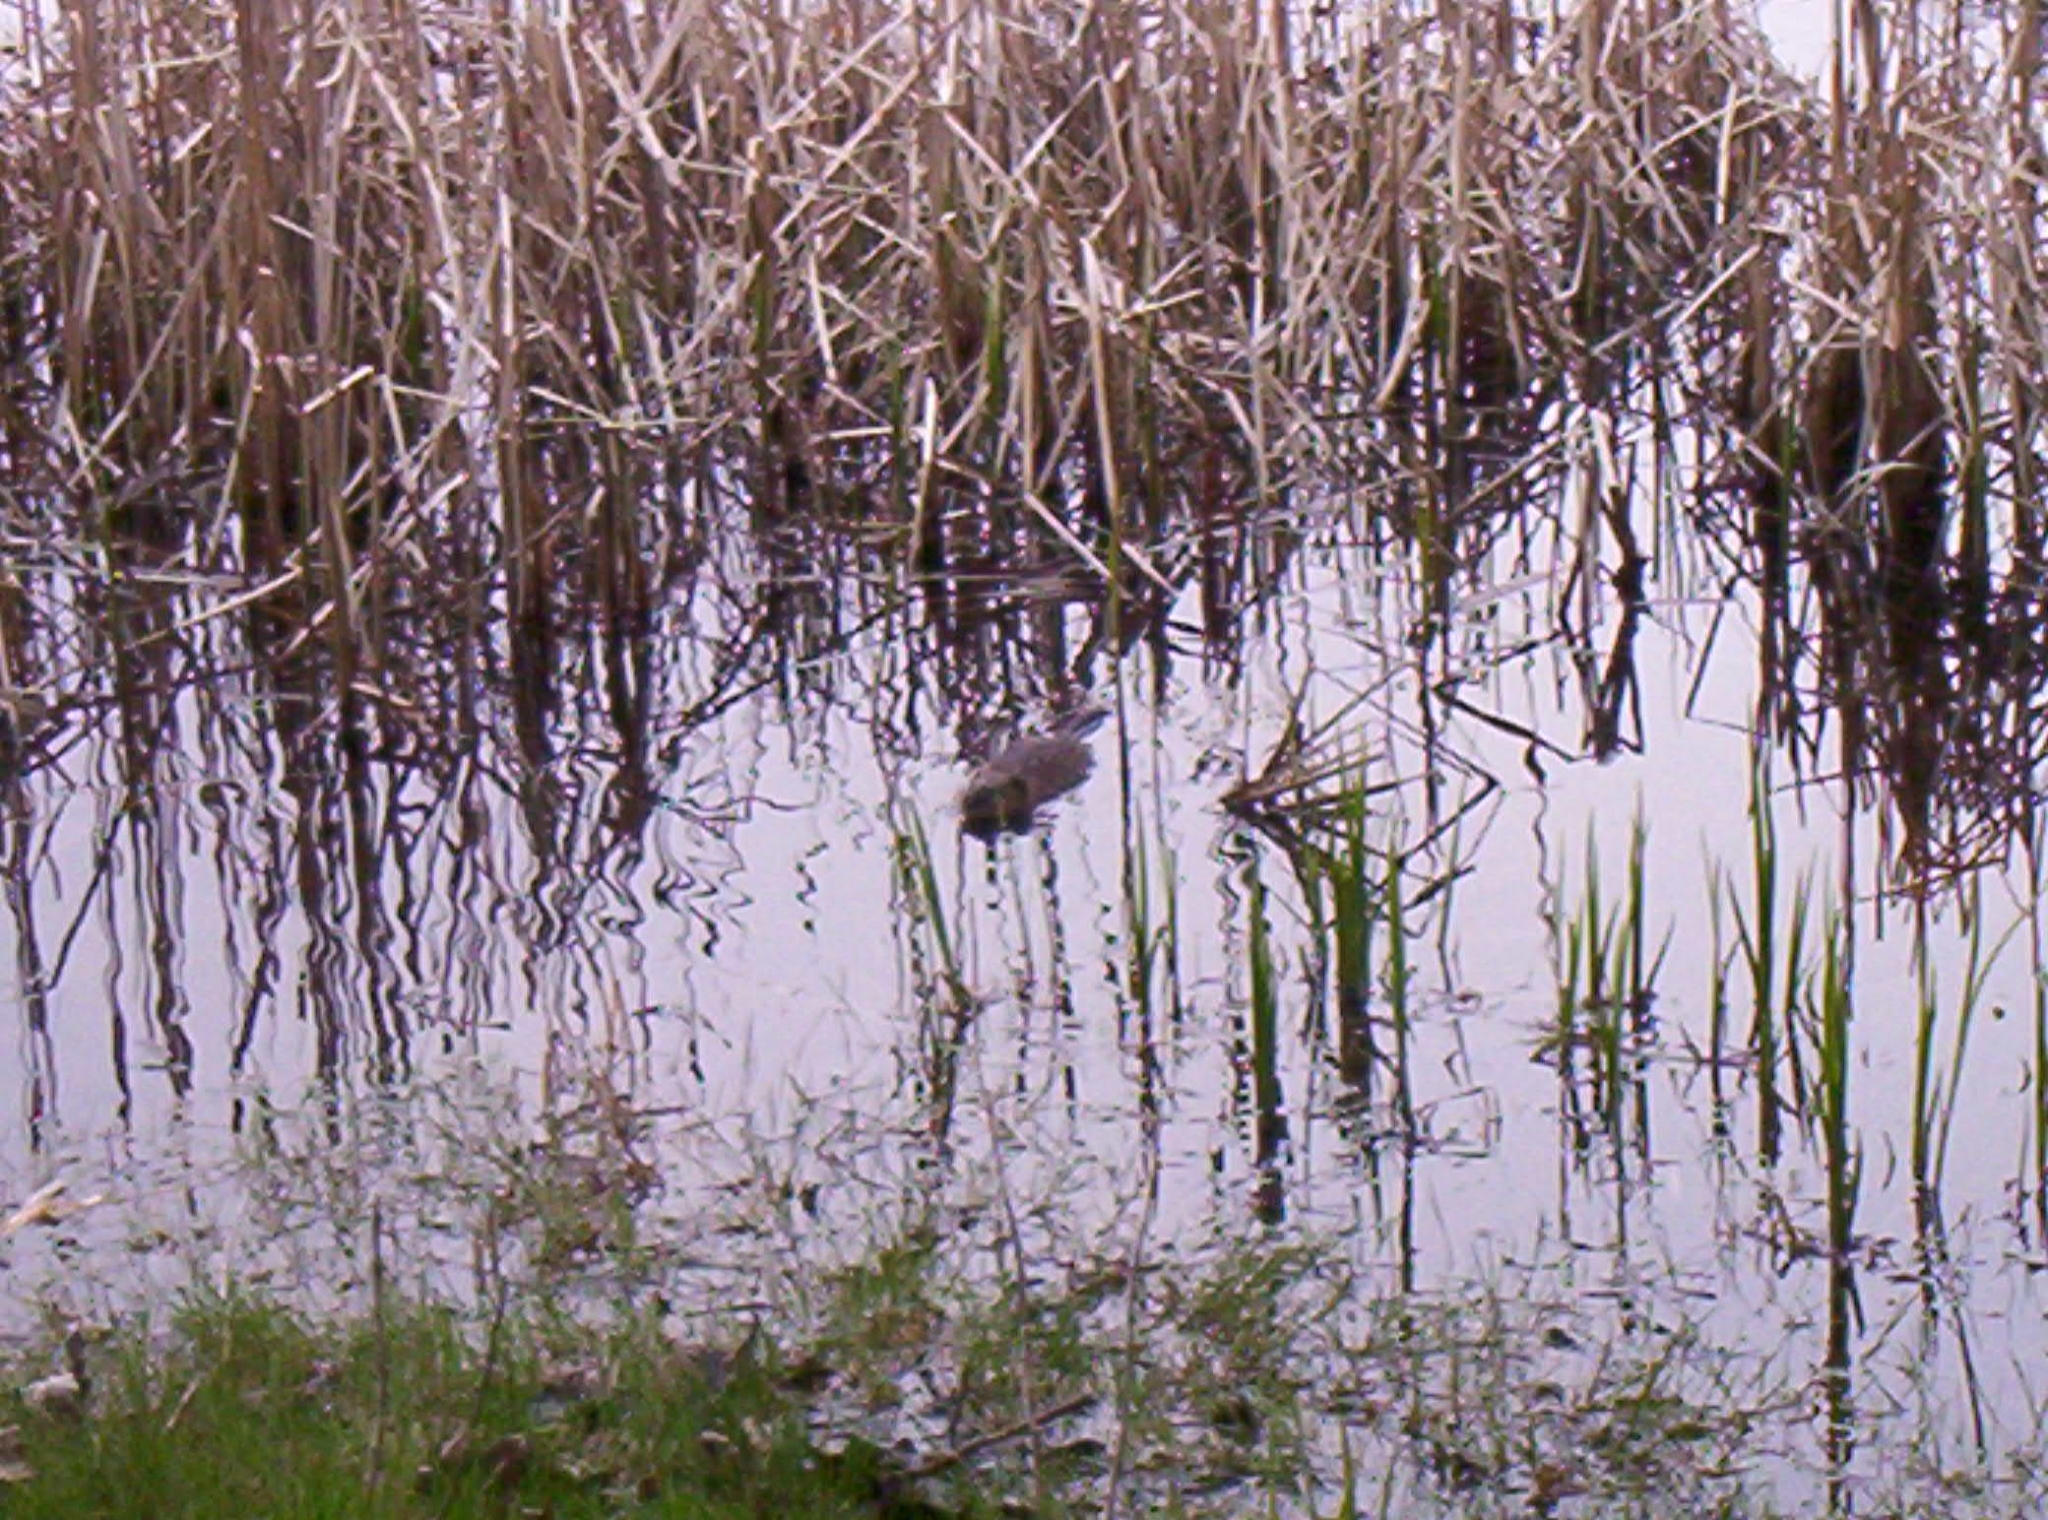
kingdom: Animalia
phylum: Chordata
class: Mammalia
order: Rodentia
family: Cricetidae
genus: Ondatra
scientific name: Ondatra zibethicus
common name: Muskrat
